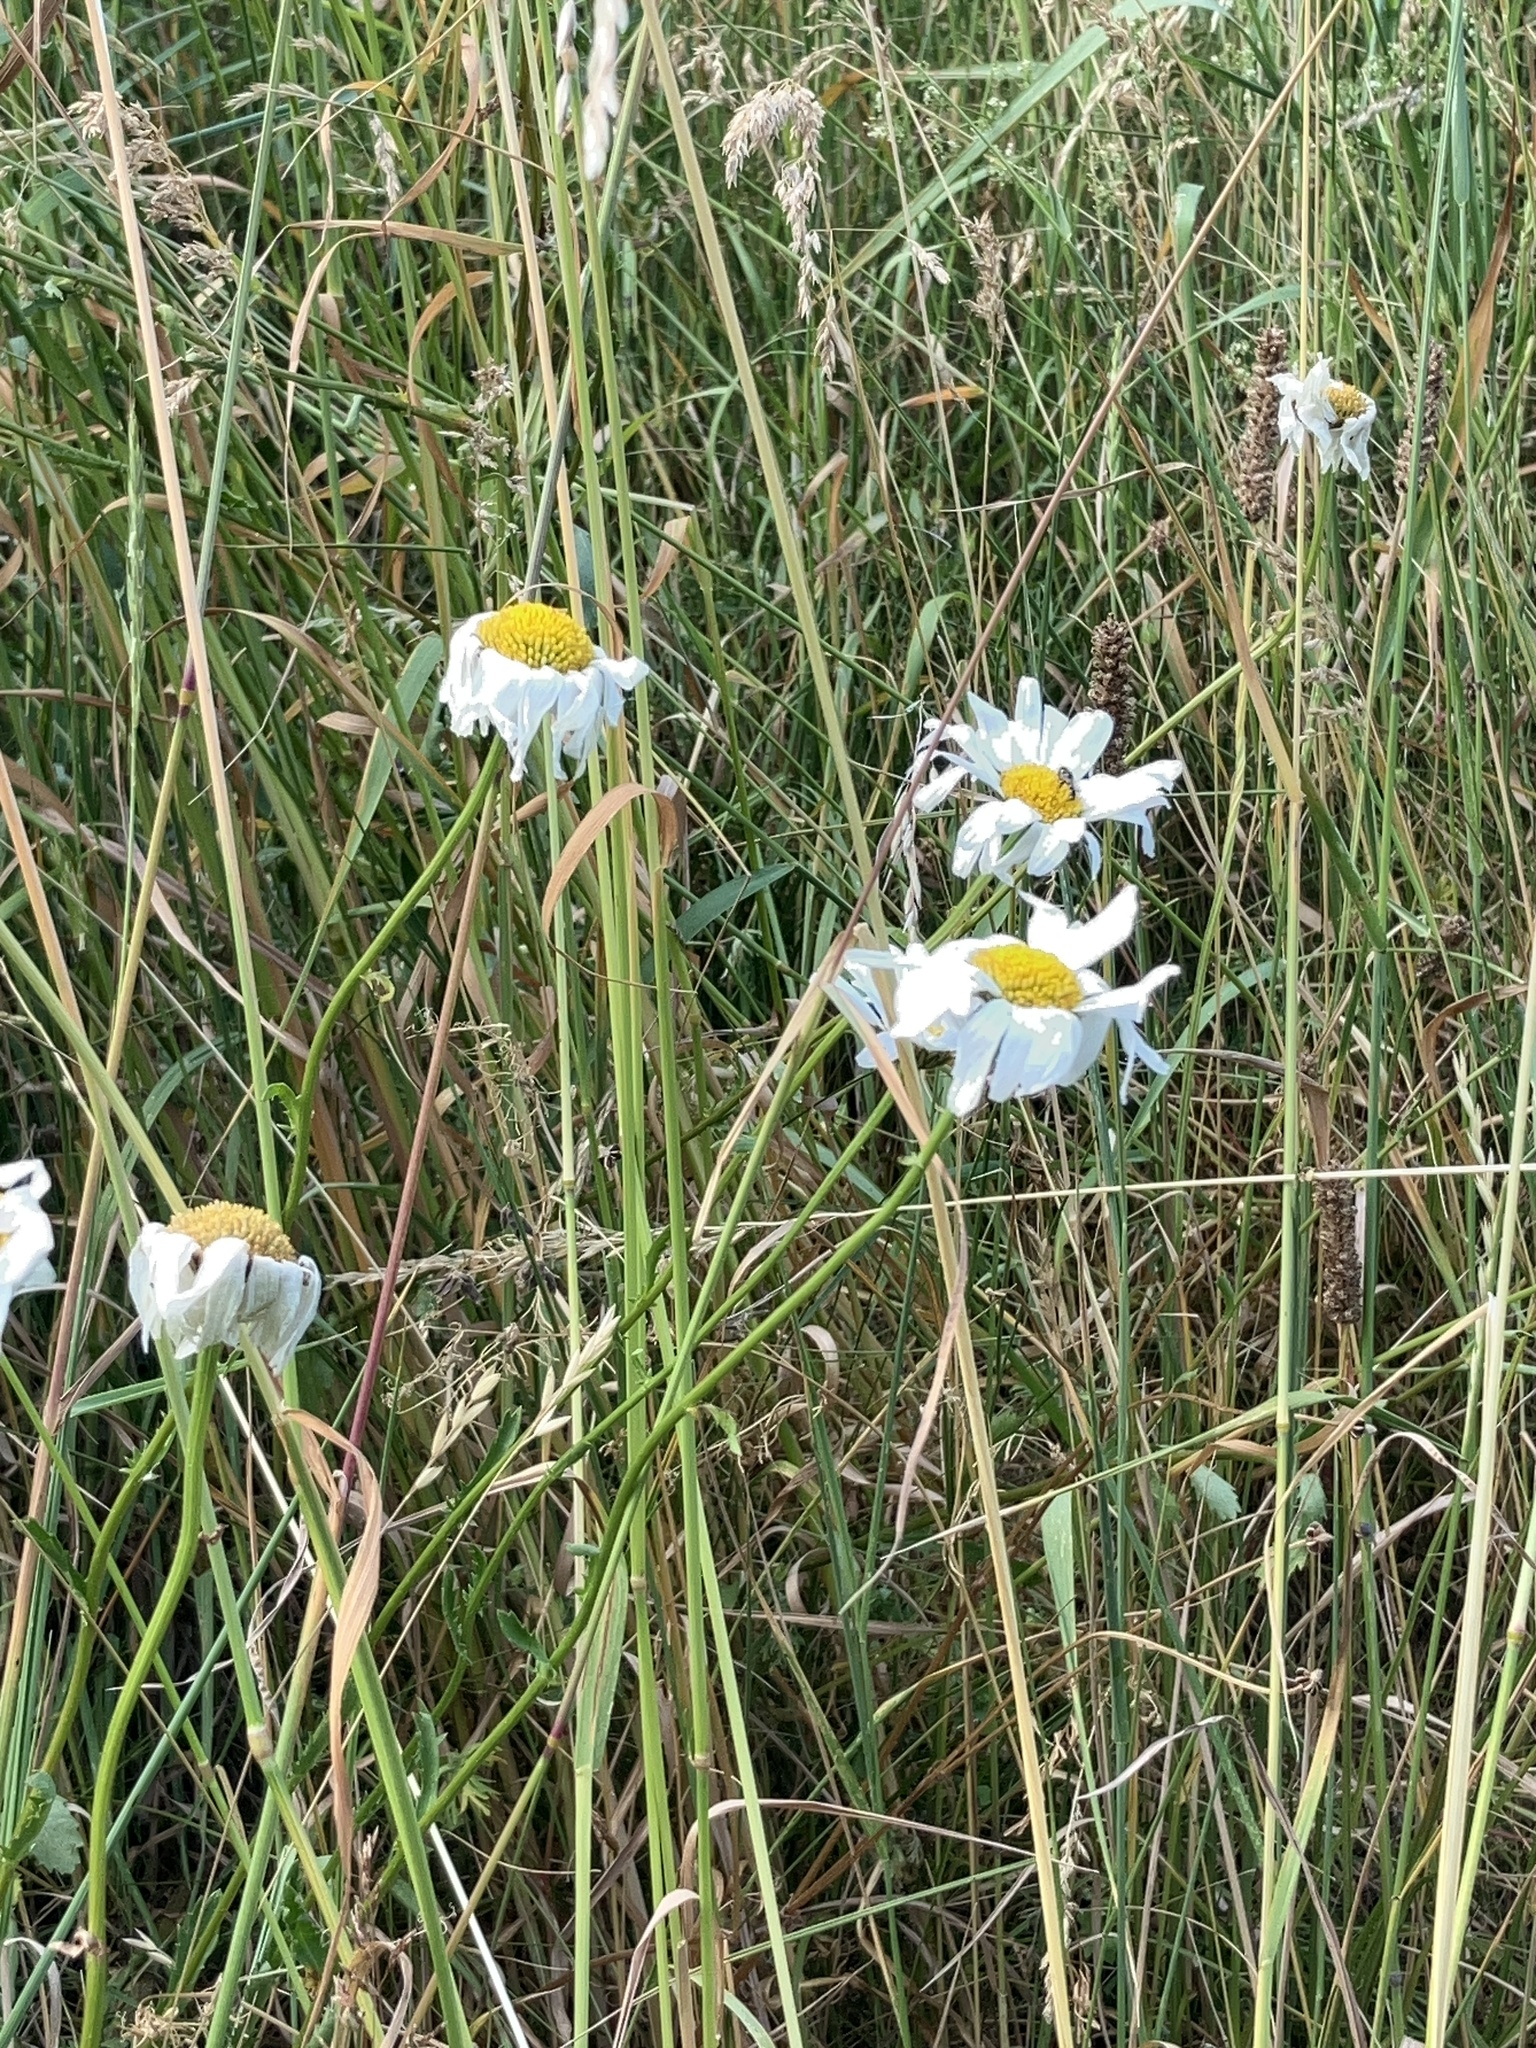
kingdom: Plantae
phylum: Tracheophyta
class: Magnoliopsida
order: Asterales
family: Asteraceae
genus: Leucanthemum
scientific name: Leucanthemum vulgare
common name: Oxeye daisy
